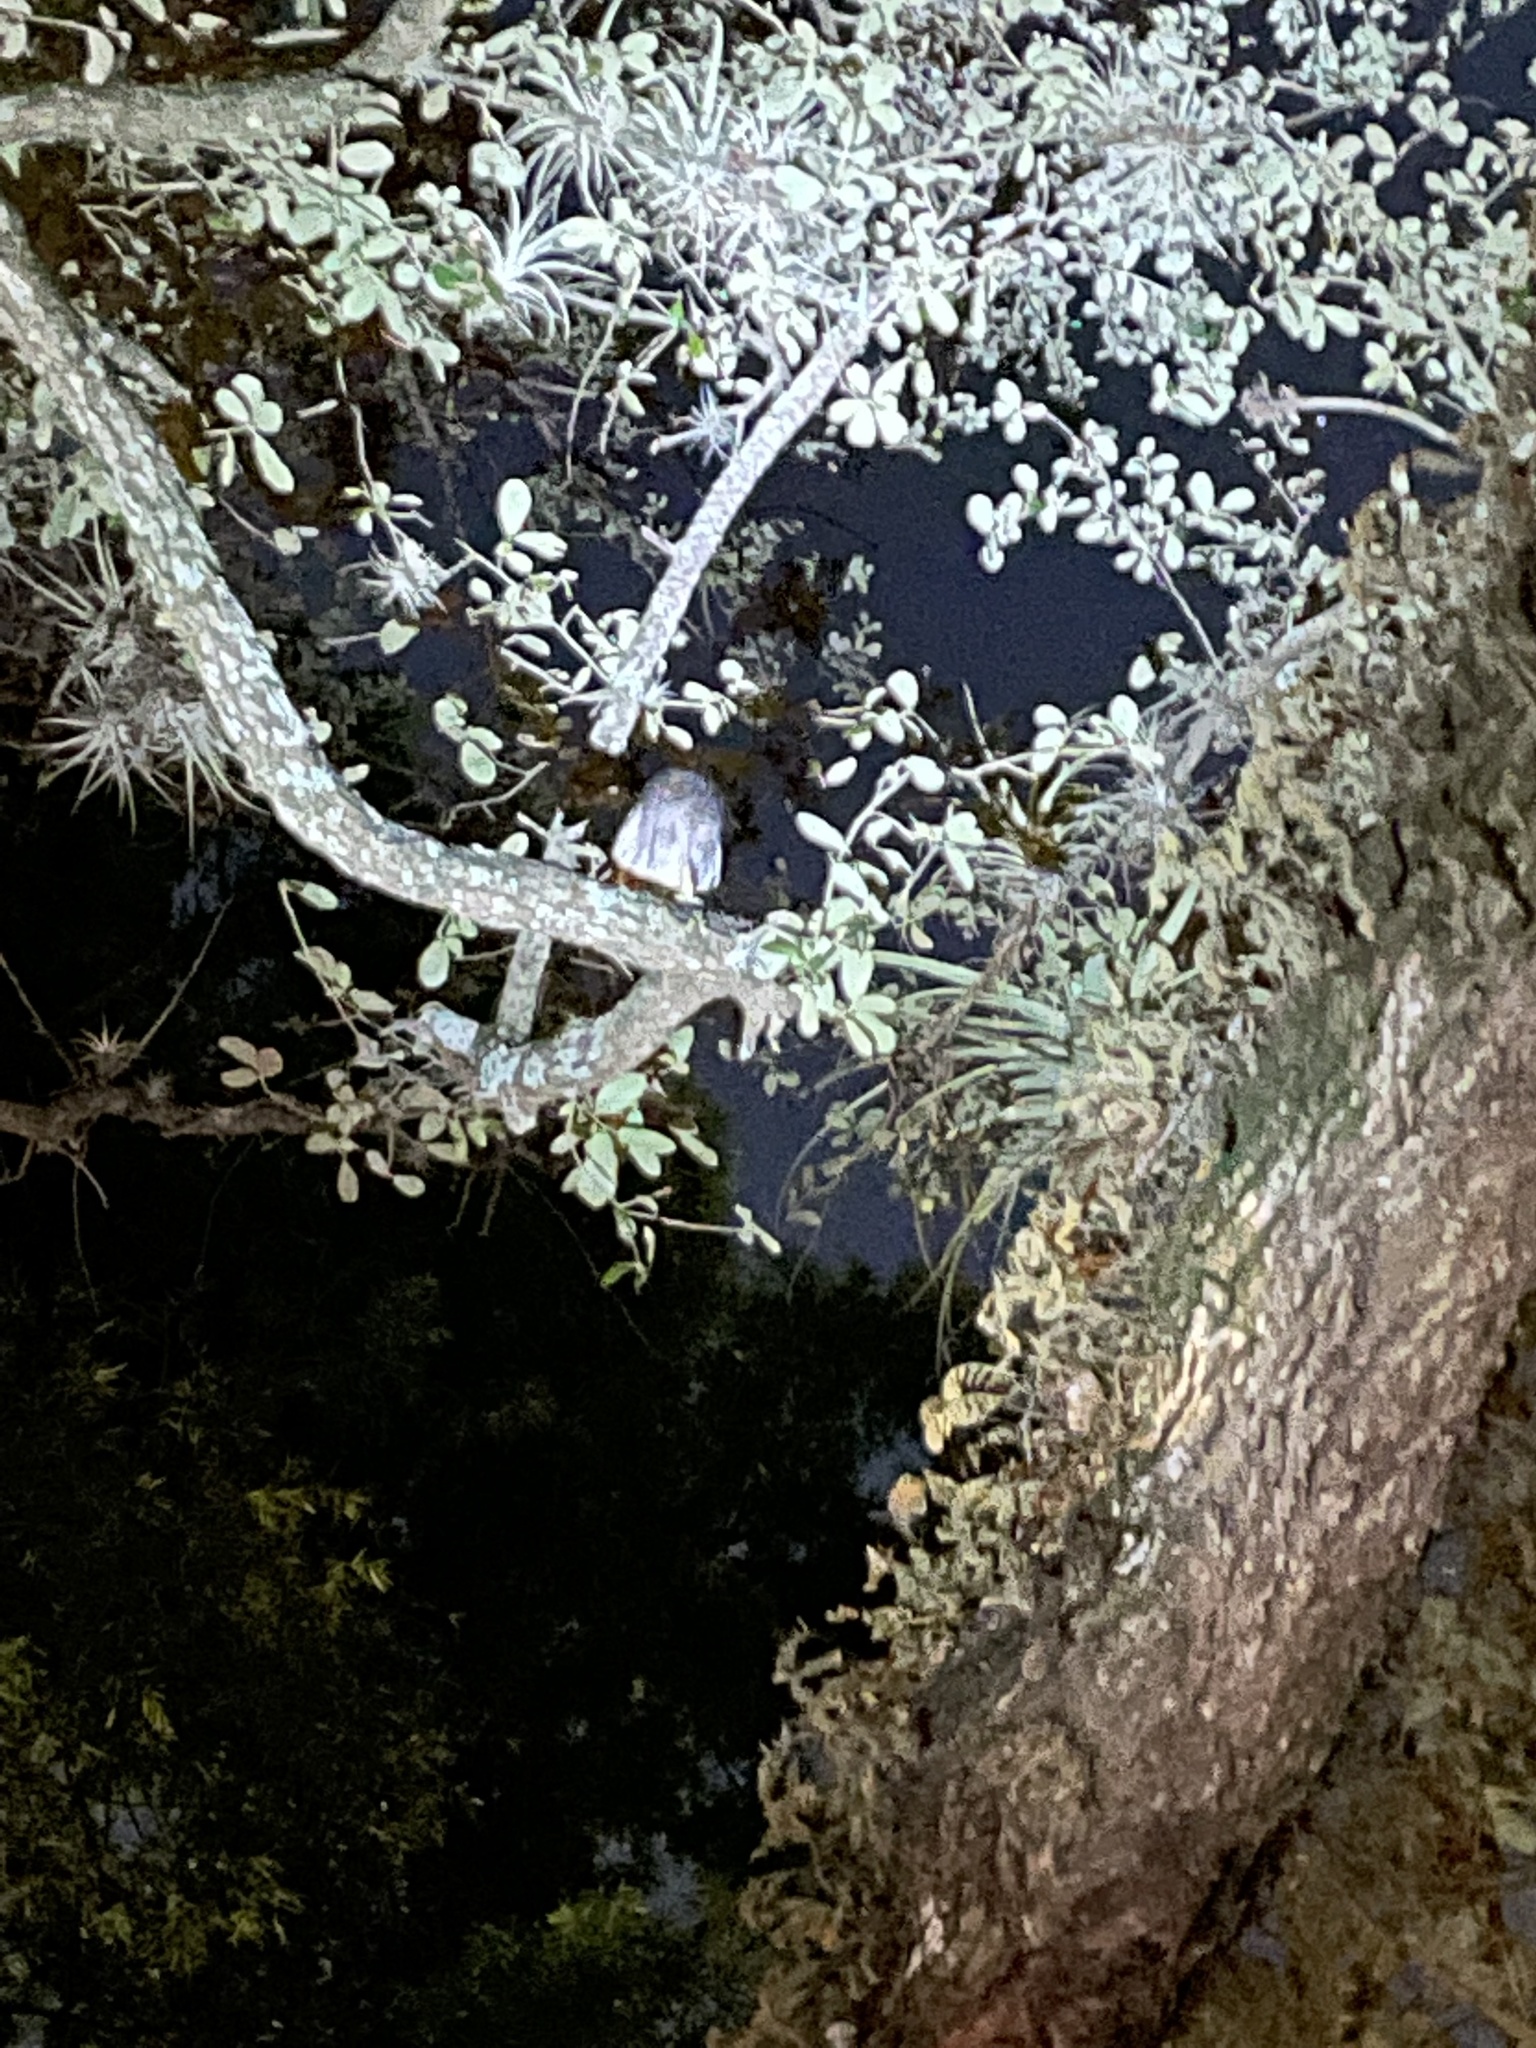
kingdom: Animalia
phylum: Chordata
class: Aves
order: Strigiformes
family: Strigidae
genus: Megascops
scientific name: Megascops asio
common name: Eastern screech-owl
